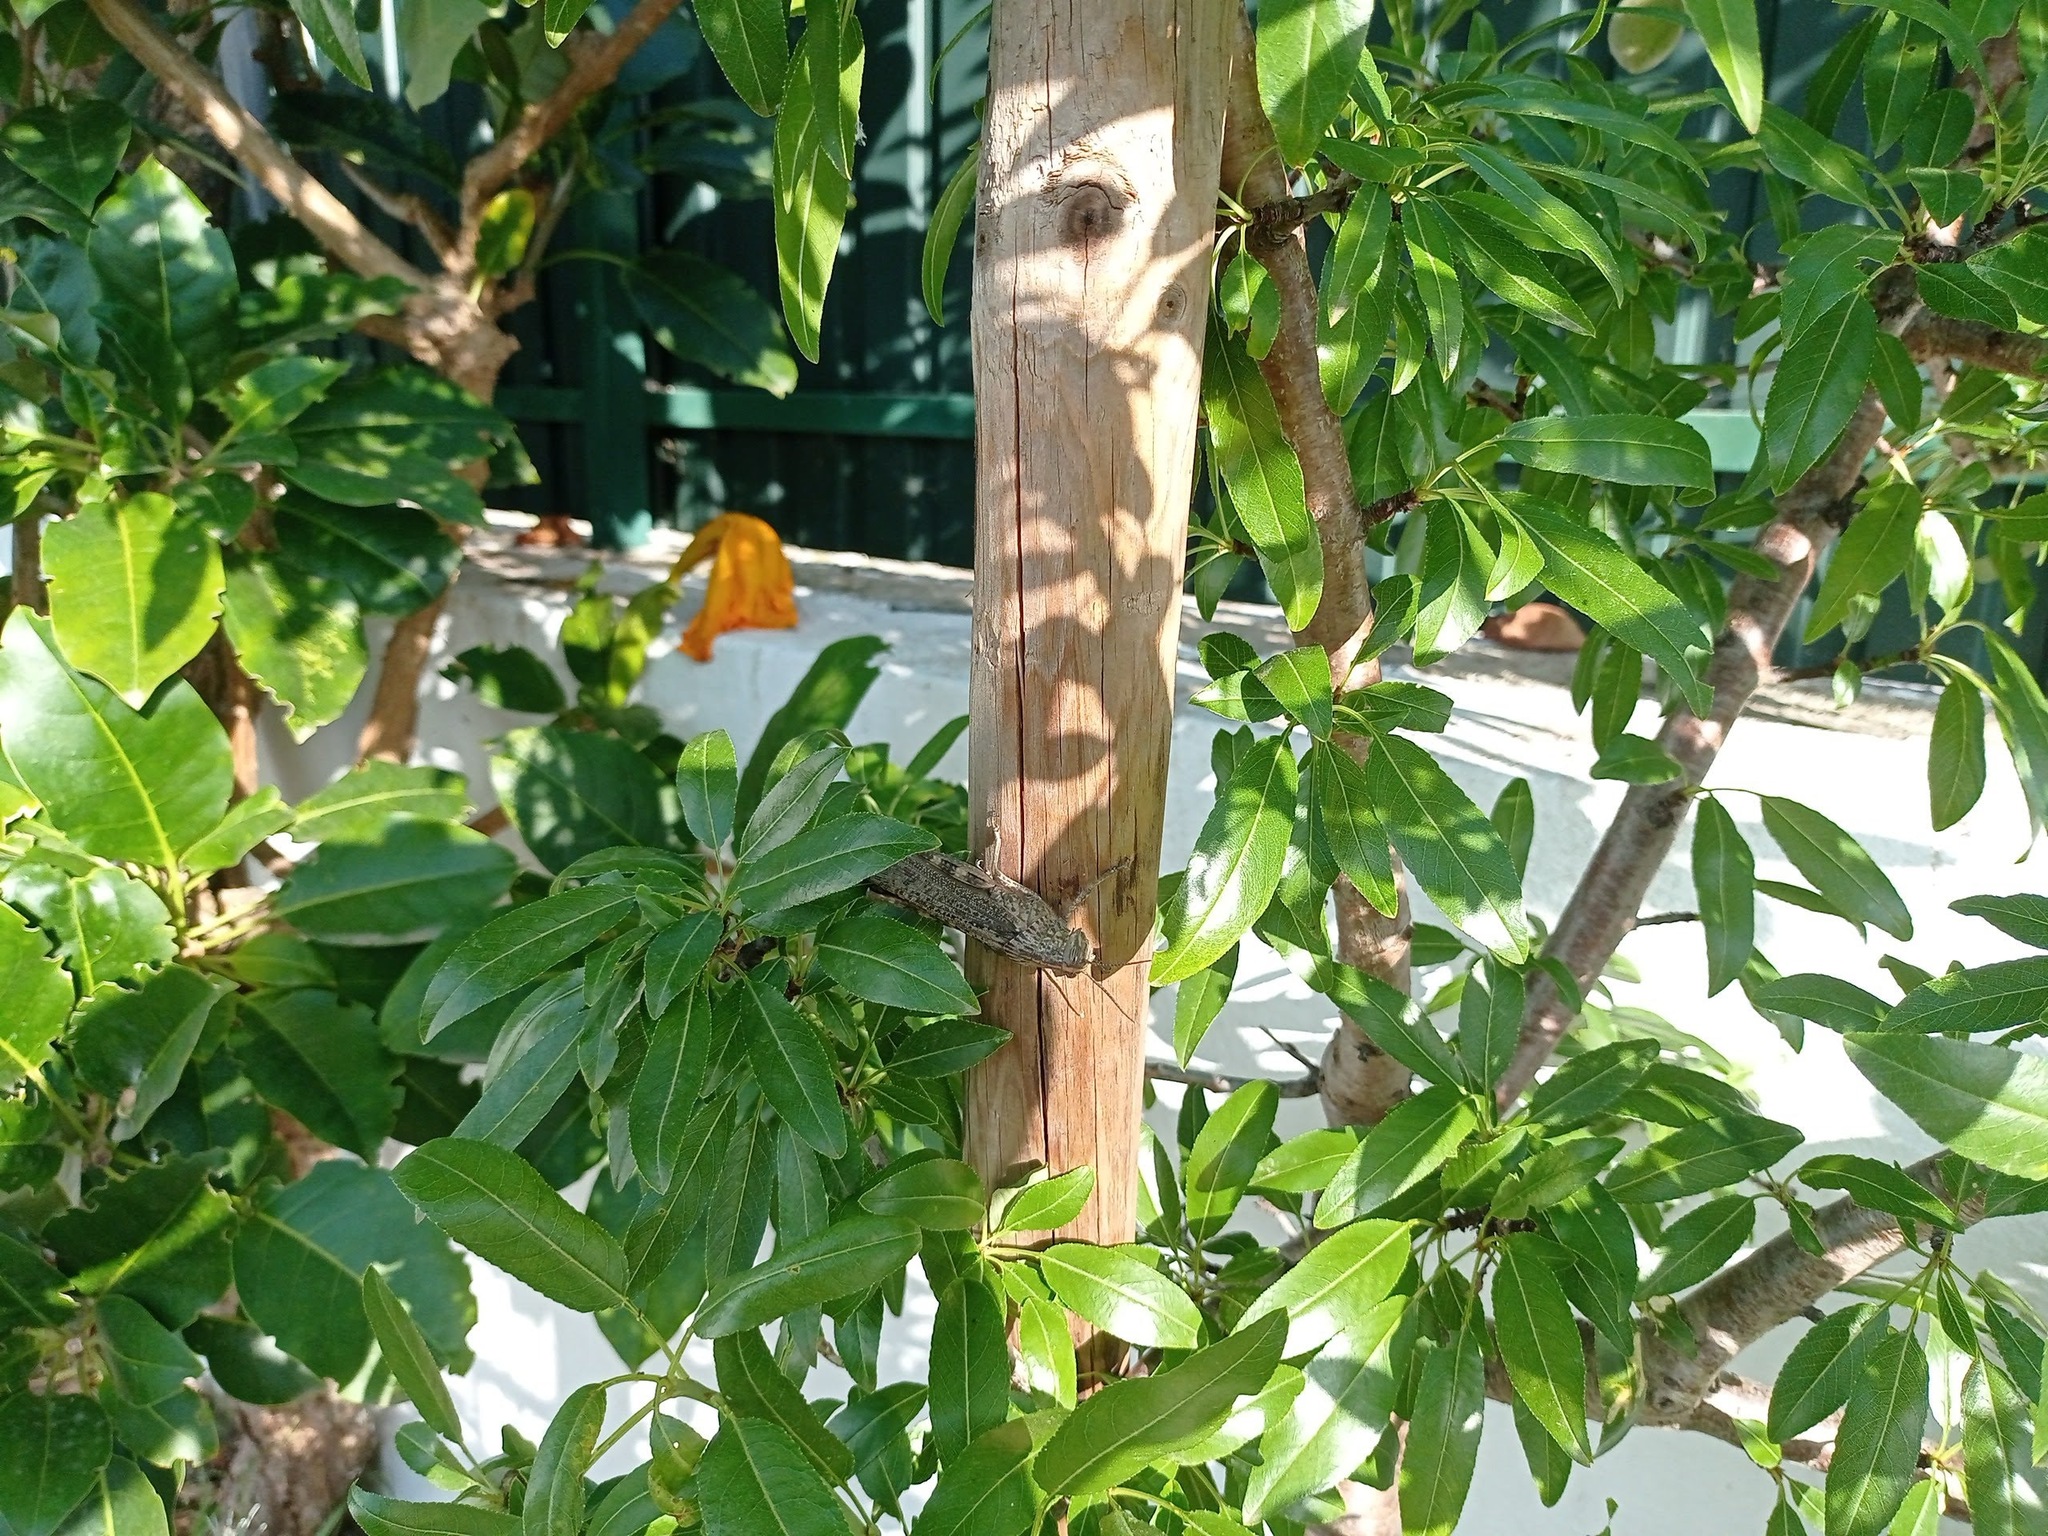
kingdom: Animalia
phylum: Arthropoda
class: Insecta
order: Orthoptera
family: Acrididae
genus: Anacridium
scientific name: Anacridium aegyptium
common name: Egyptian grasshopper
